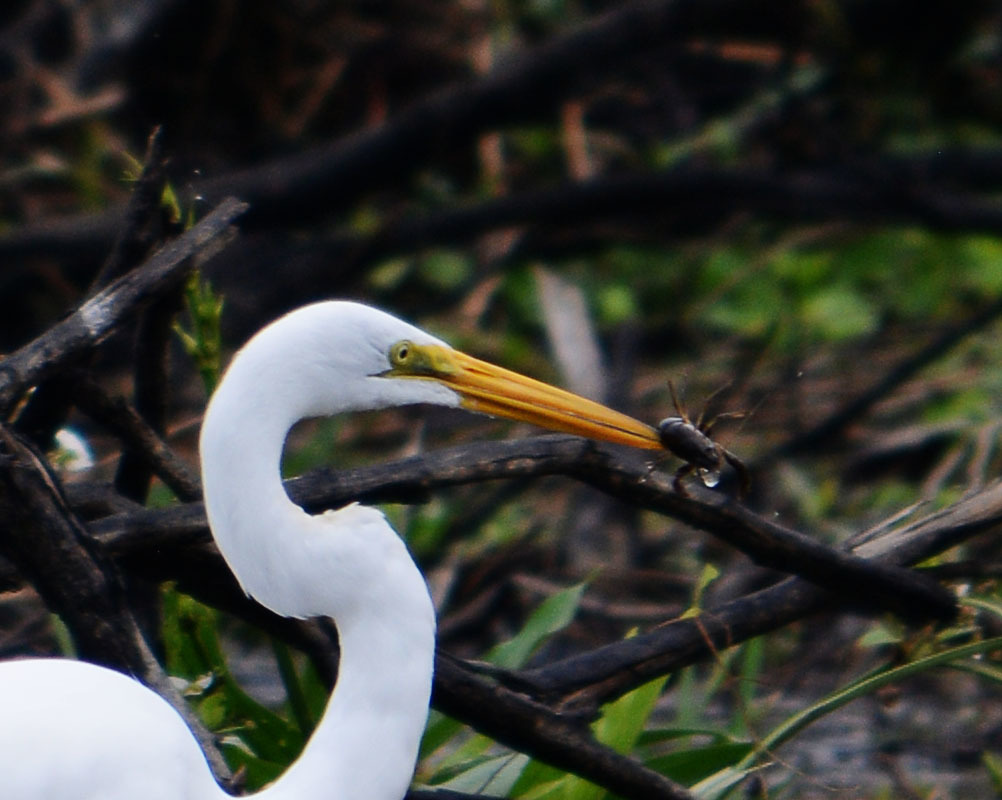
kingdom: Animalia
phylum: Chordata
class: Aves
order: Pelecaniformes
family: Ardeidae
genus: Ardea
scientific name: Ardea alba
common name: Great egret
